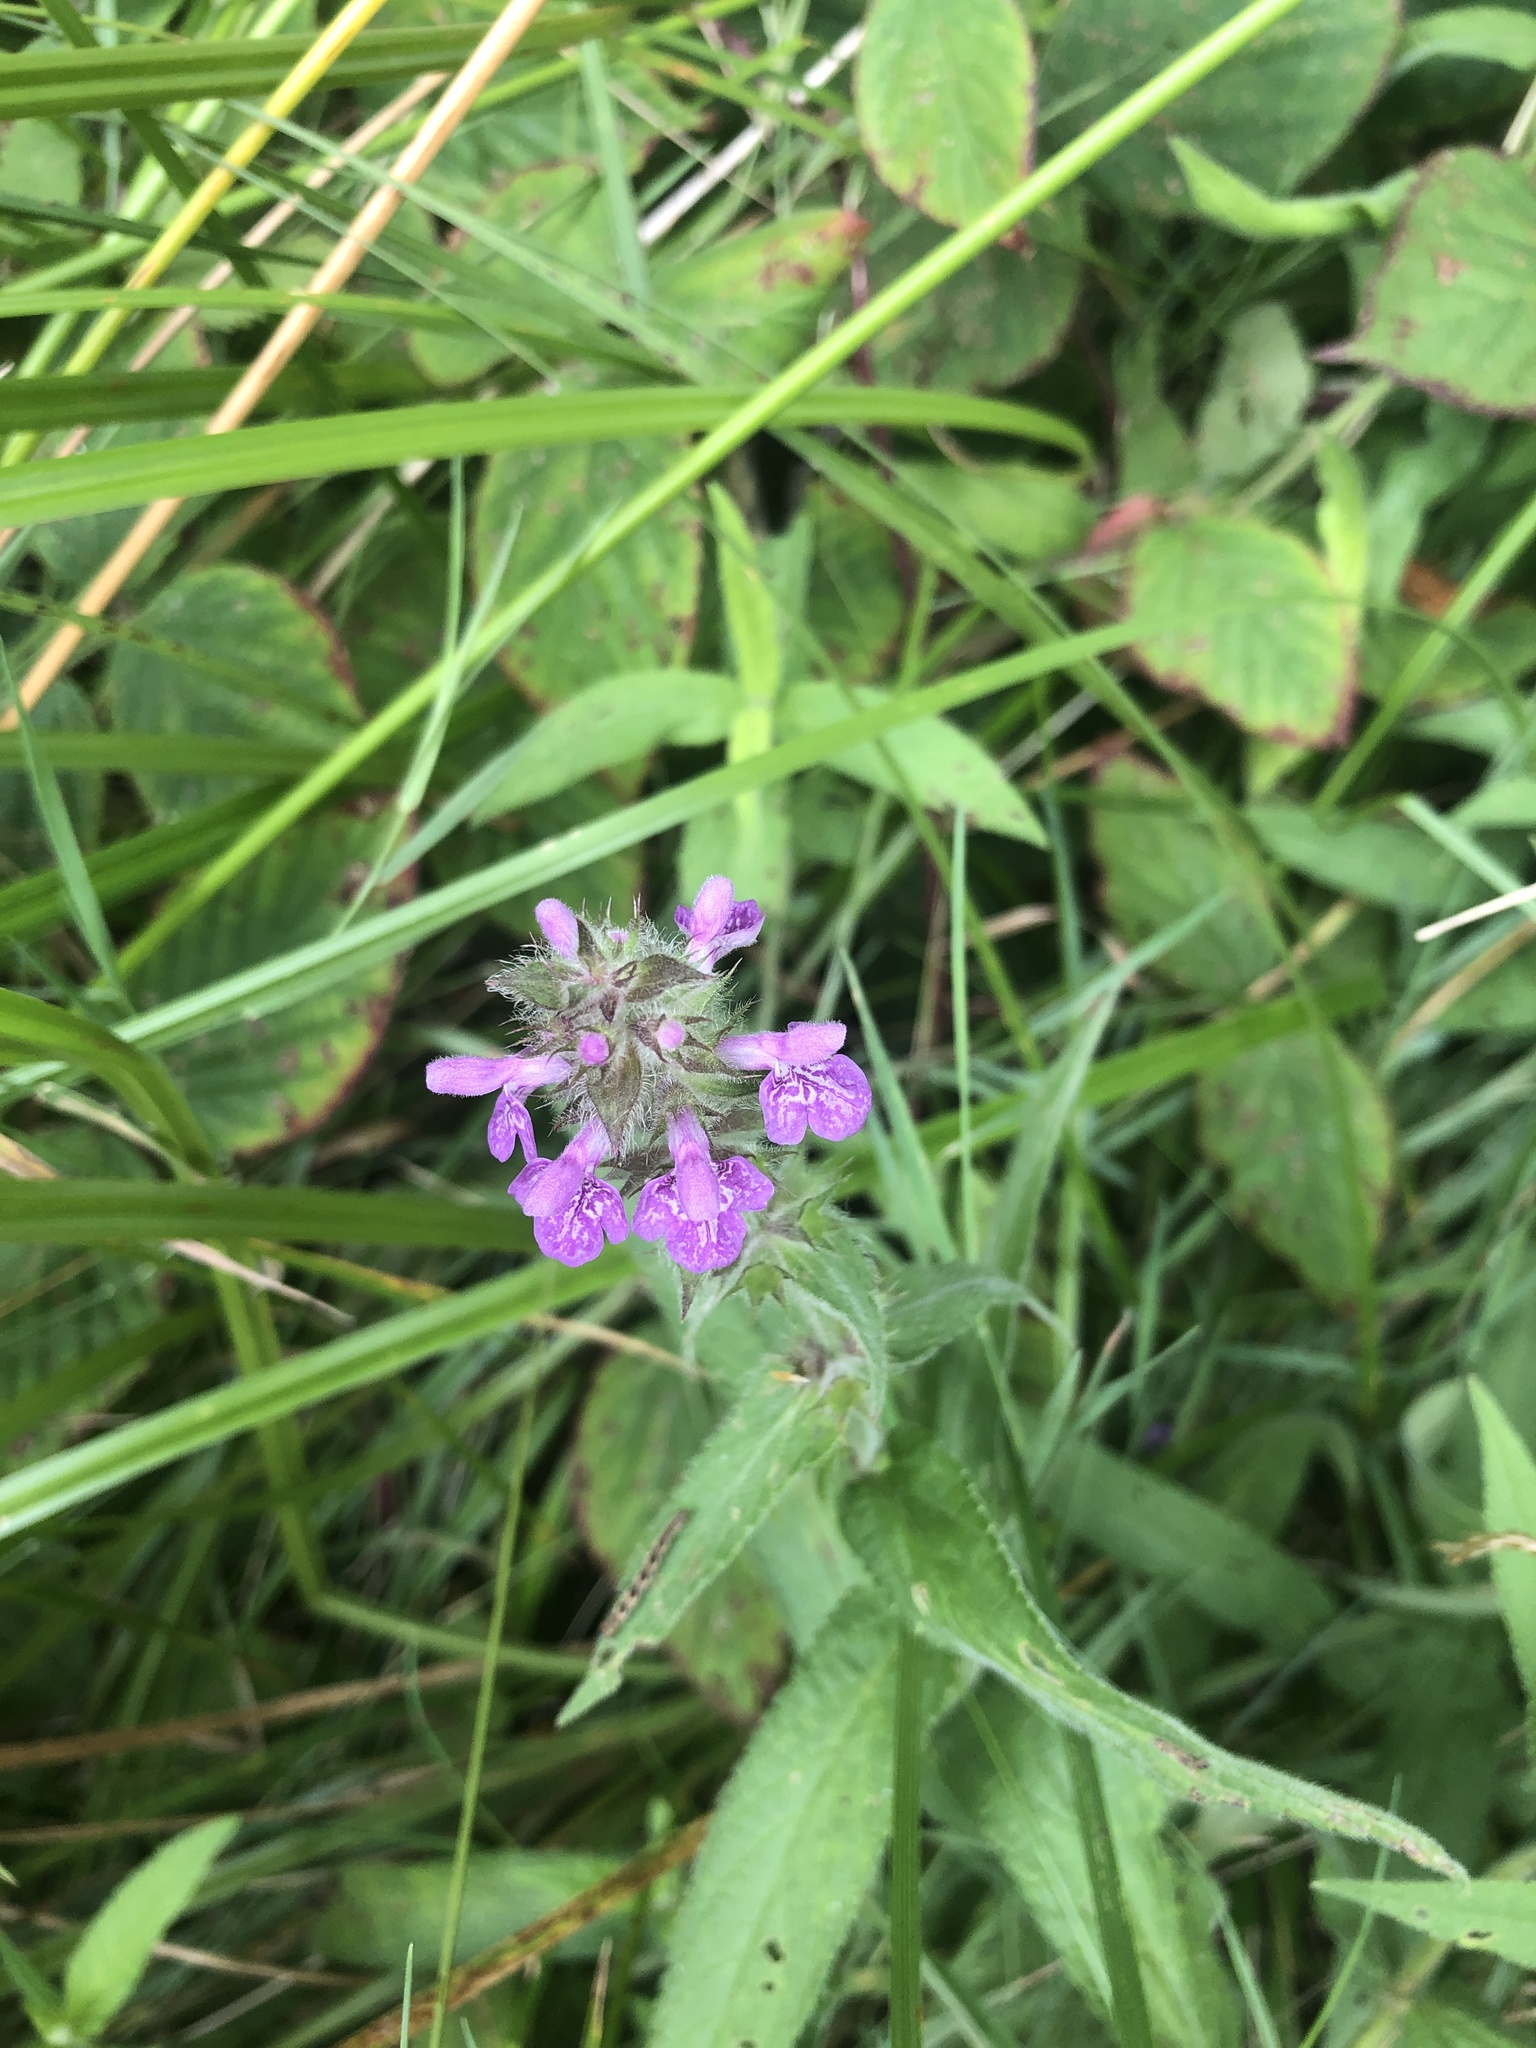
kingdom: Plantae
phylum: Tracheophyta
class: Magnoliopsida
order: Lamiales
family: Lamiaceae
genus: Stachys
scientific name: Stachys palustris
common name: Marsh woundwort
